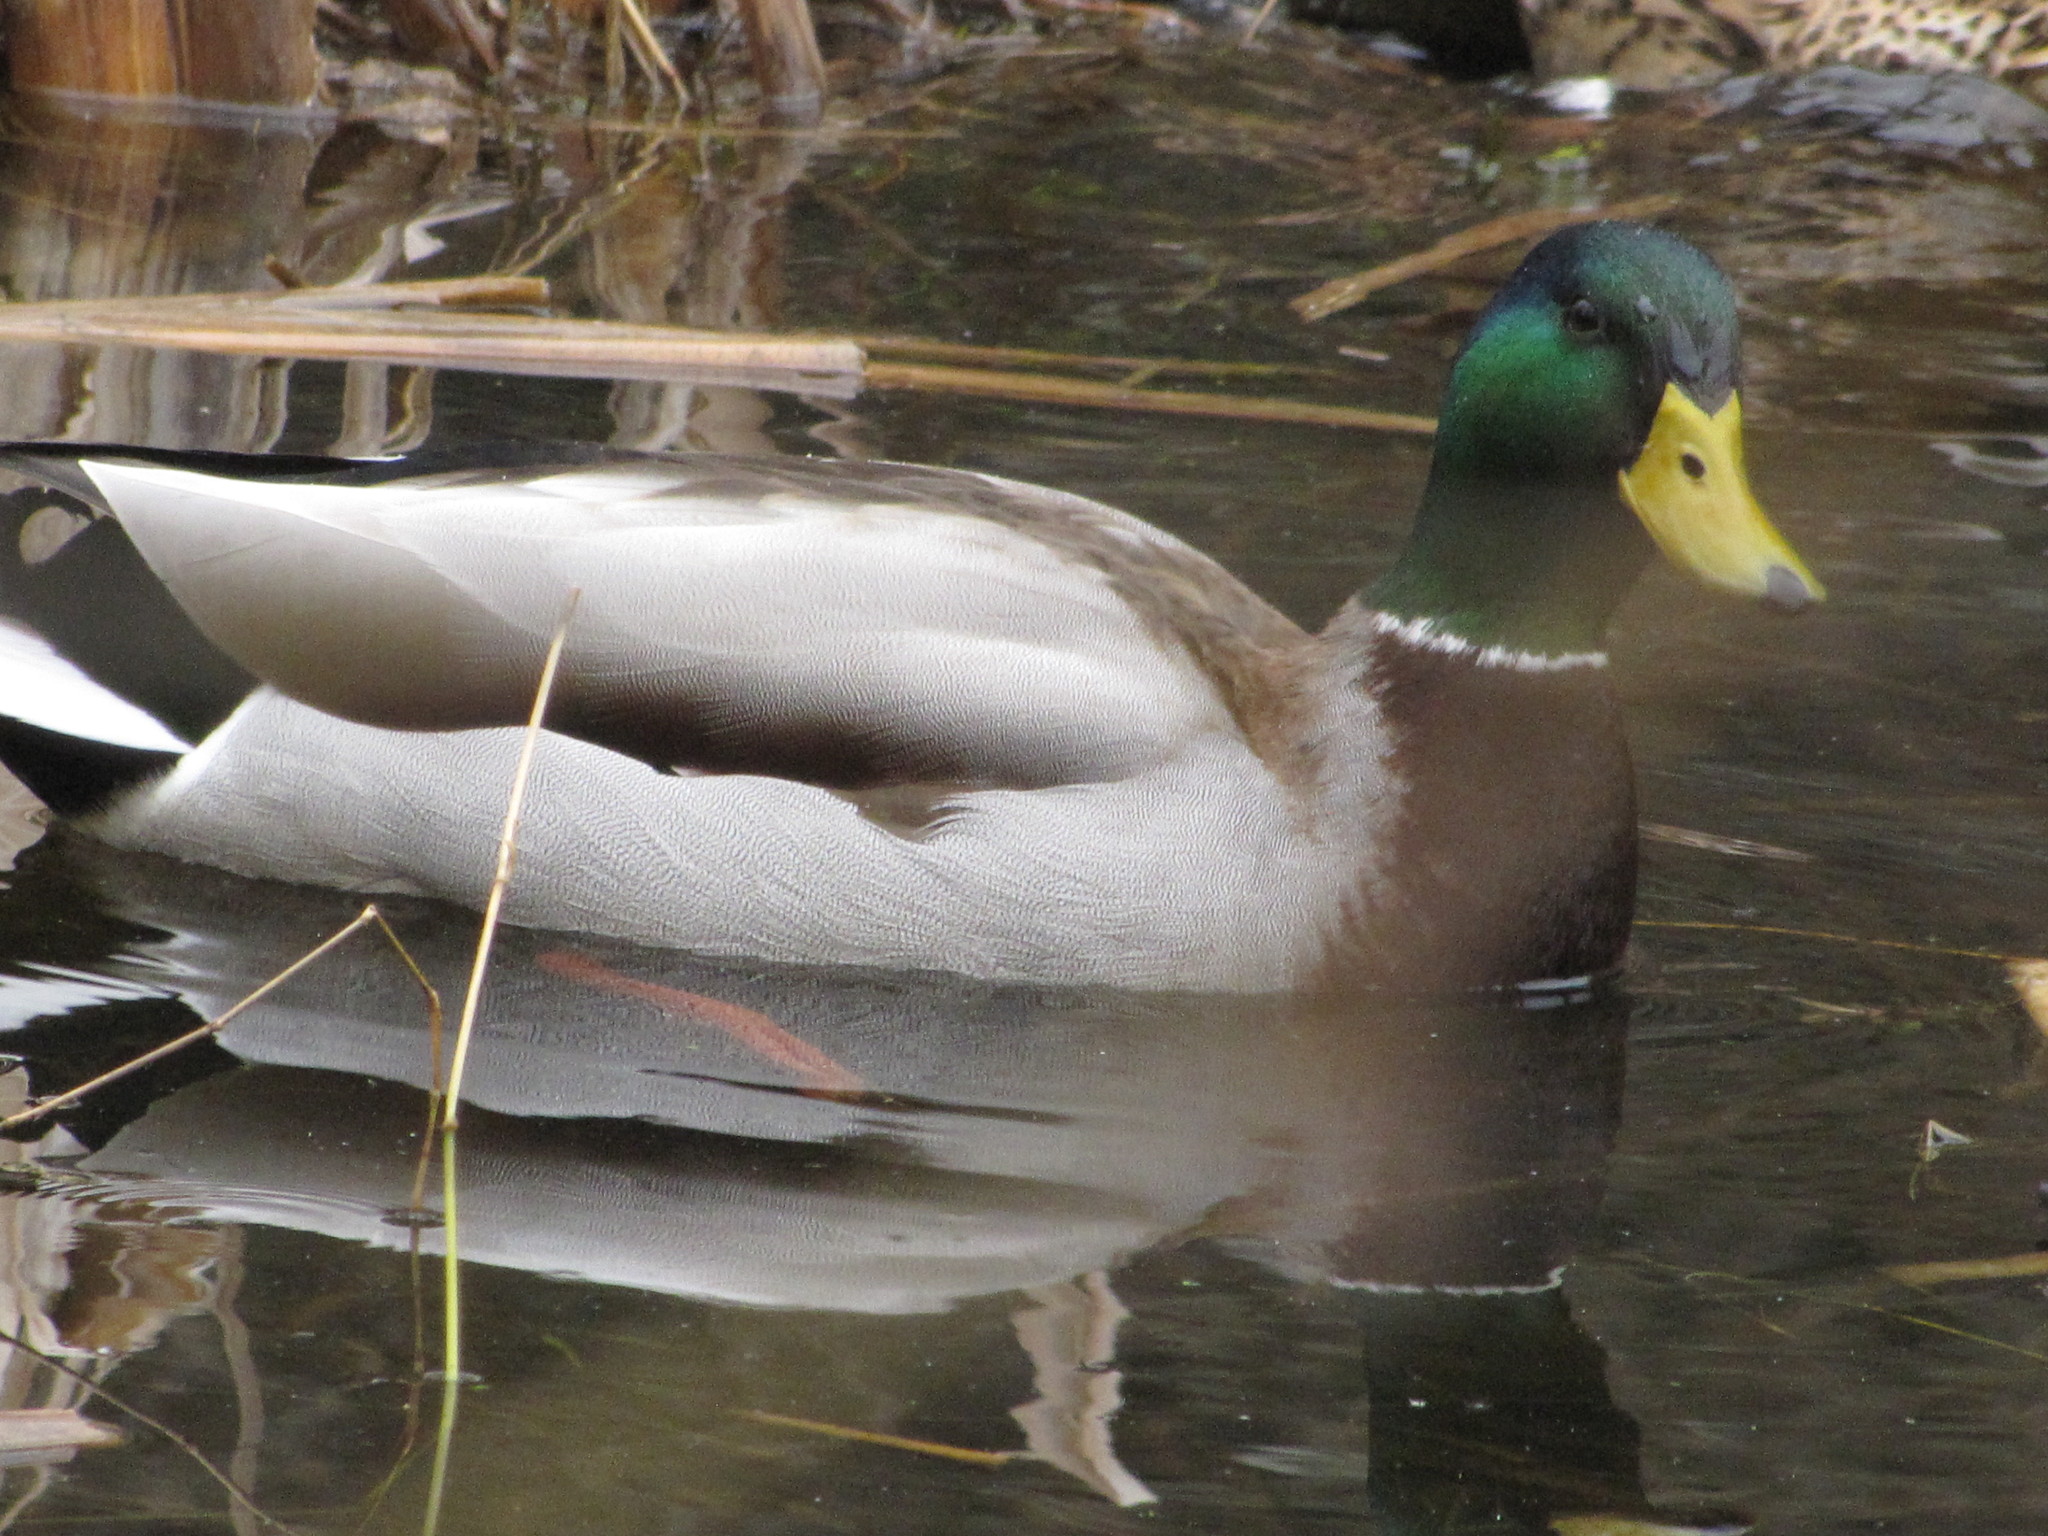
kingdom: Animalia
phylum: Chordata
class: Aves
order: Anseriformes
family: Anatidae
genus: Anas
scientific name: Anas platyrhynchos
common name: Mallard
